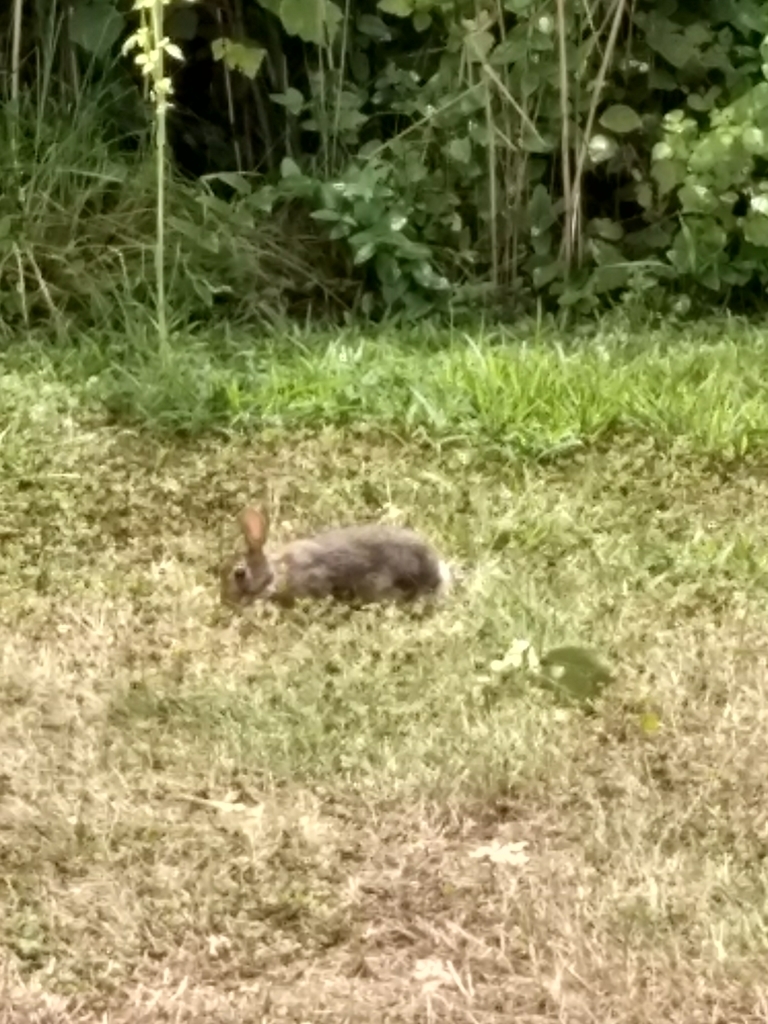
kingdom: Animalia
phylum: Chordata
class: Mammalia
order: Lagomorpha
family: Leporidae
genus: Sylvilagus
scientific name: Sylvilagus floridanus
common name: Eastern cottontail
